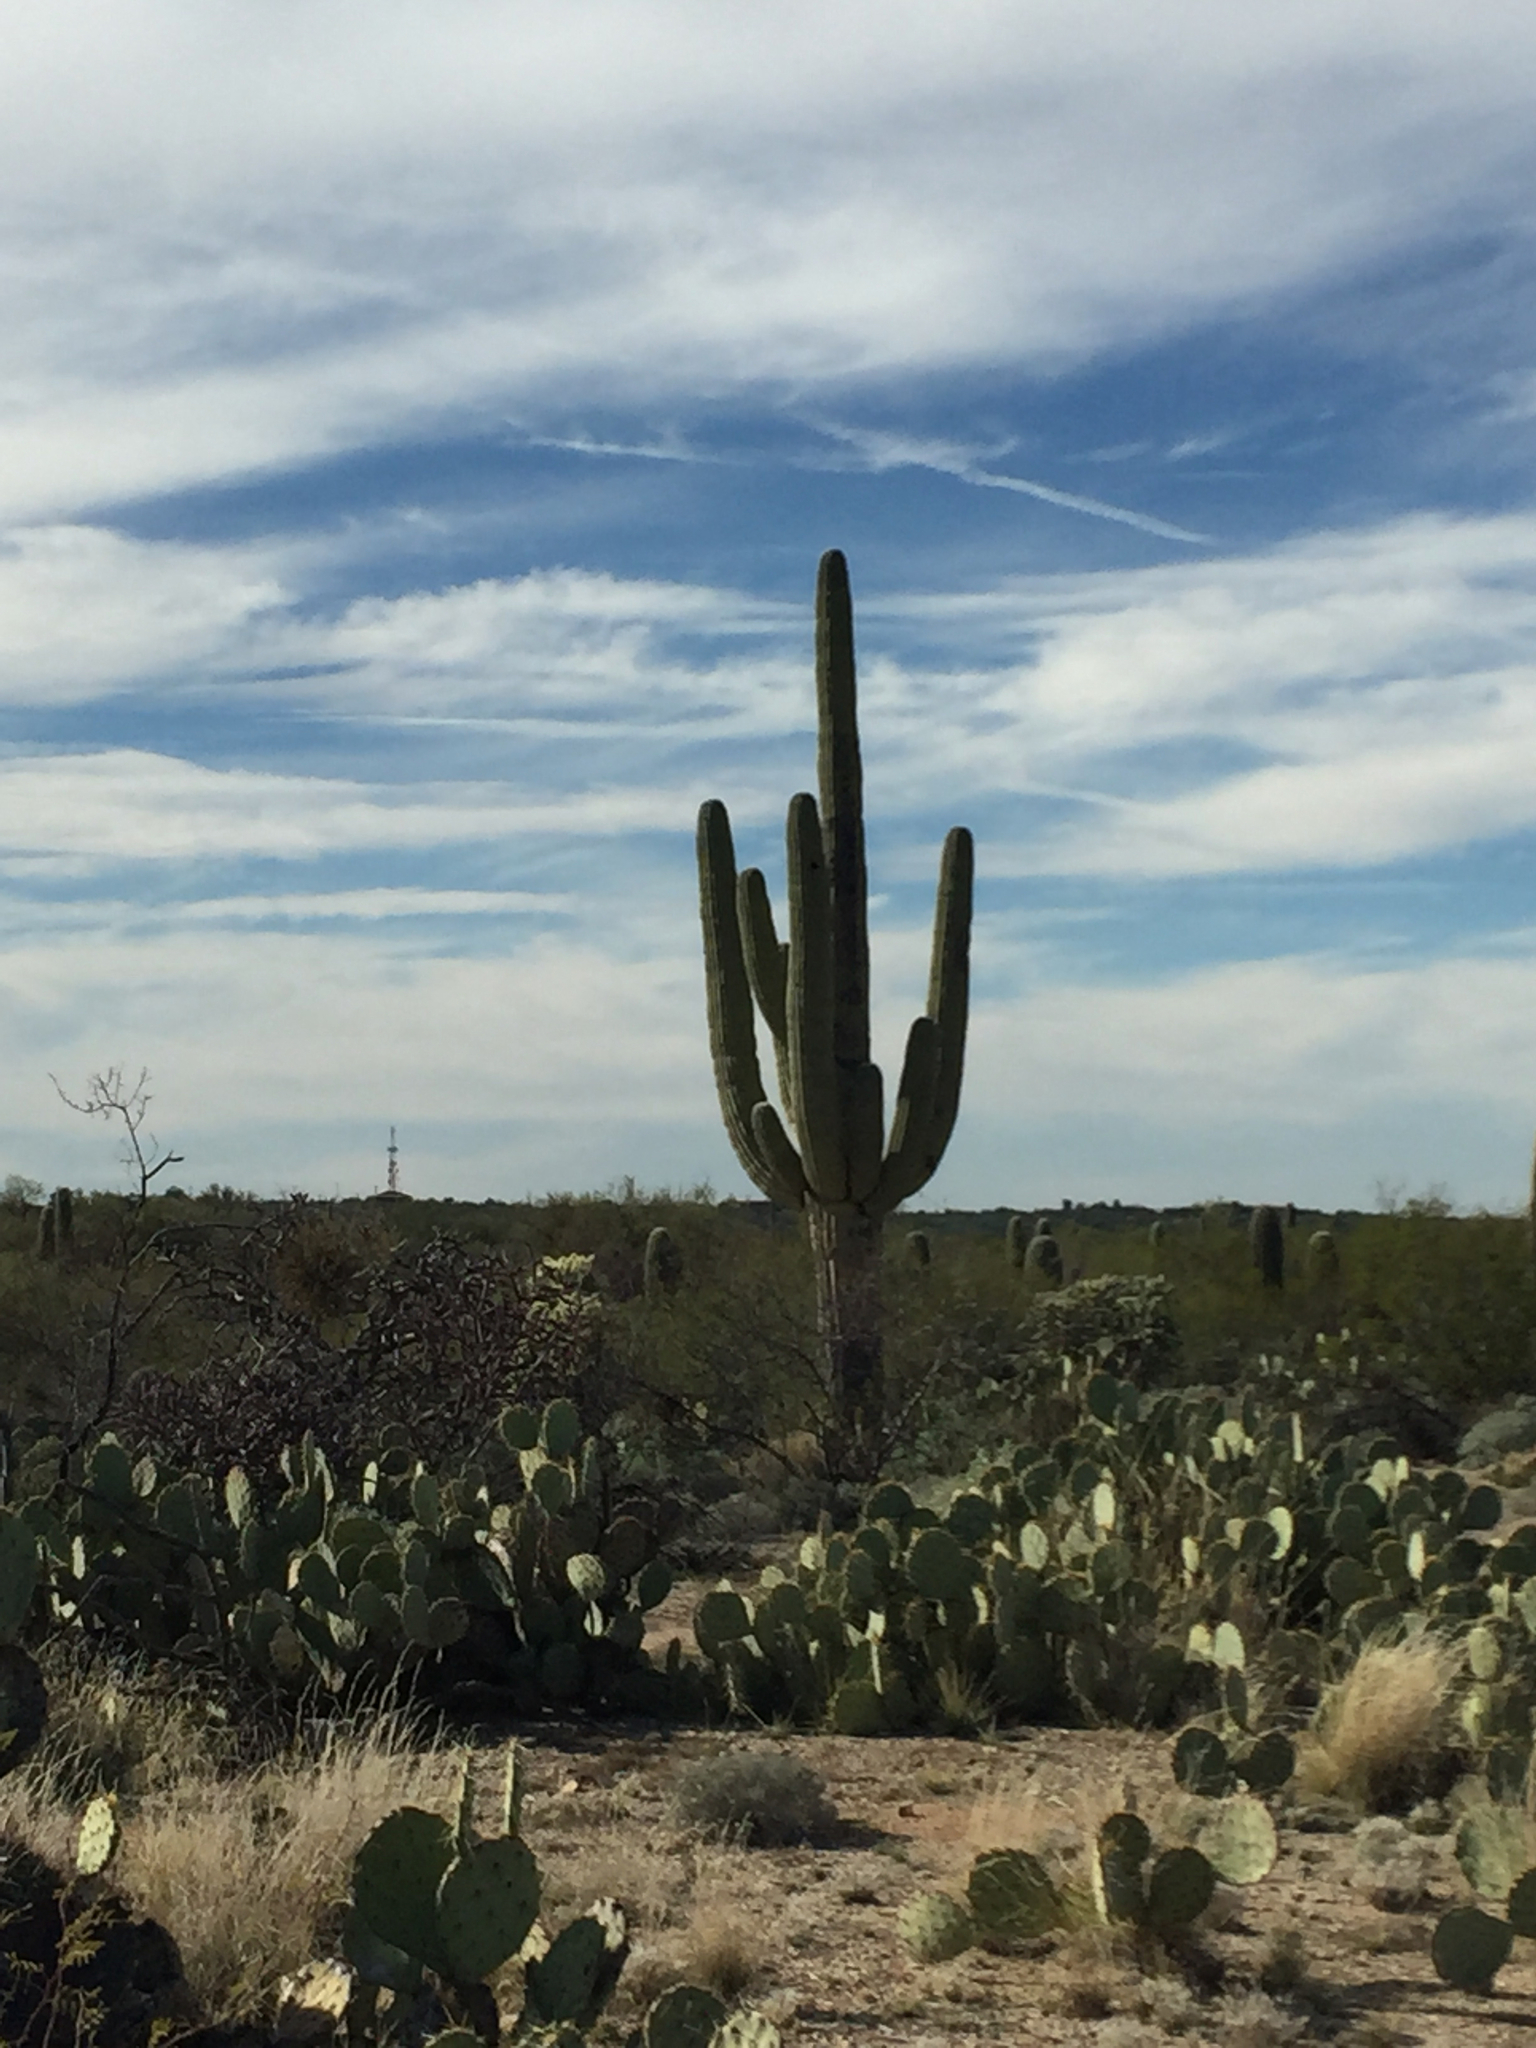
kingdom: Plantae
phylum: Tracheophyta
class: Magnoliopsida
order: Caryophyllales
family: Cactaceae
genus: Carnegiea
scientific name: Carnegiea gigantea
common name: Saguaro
